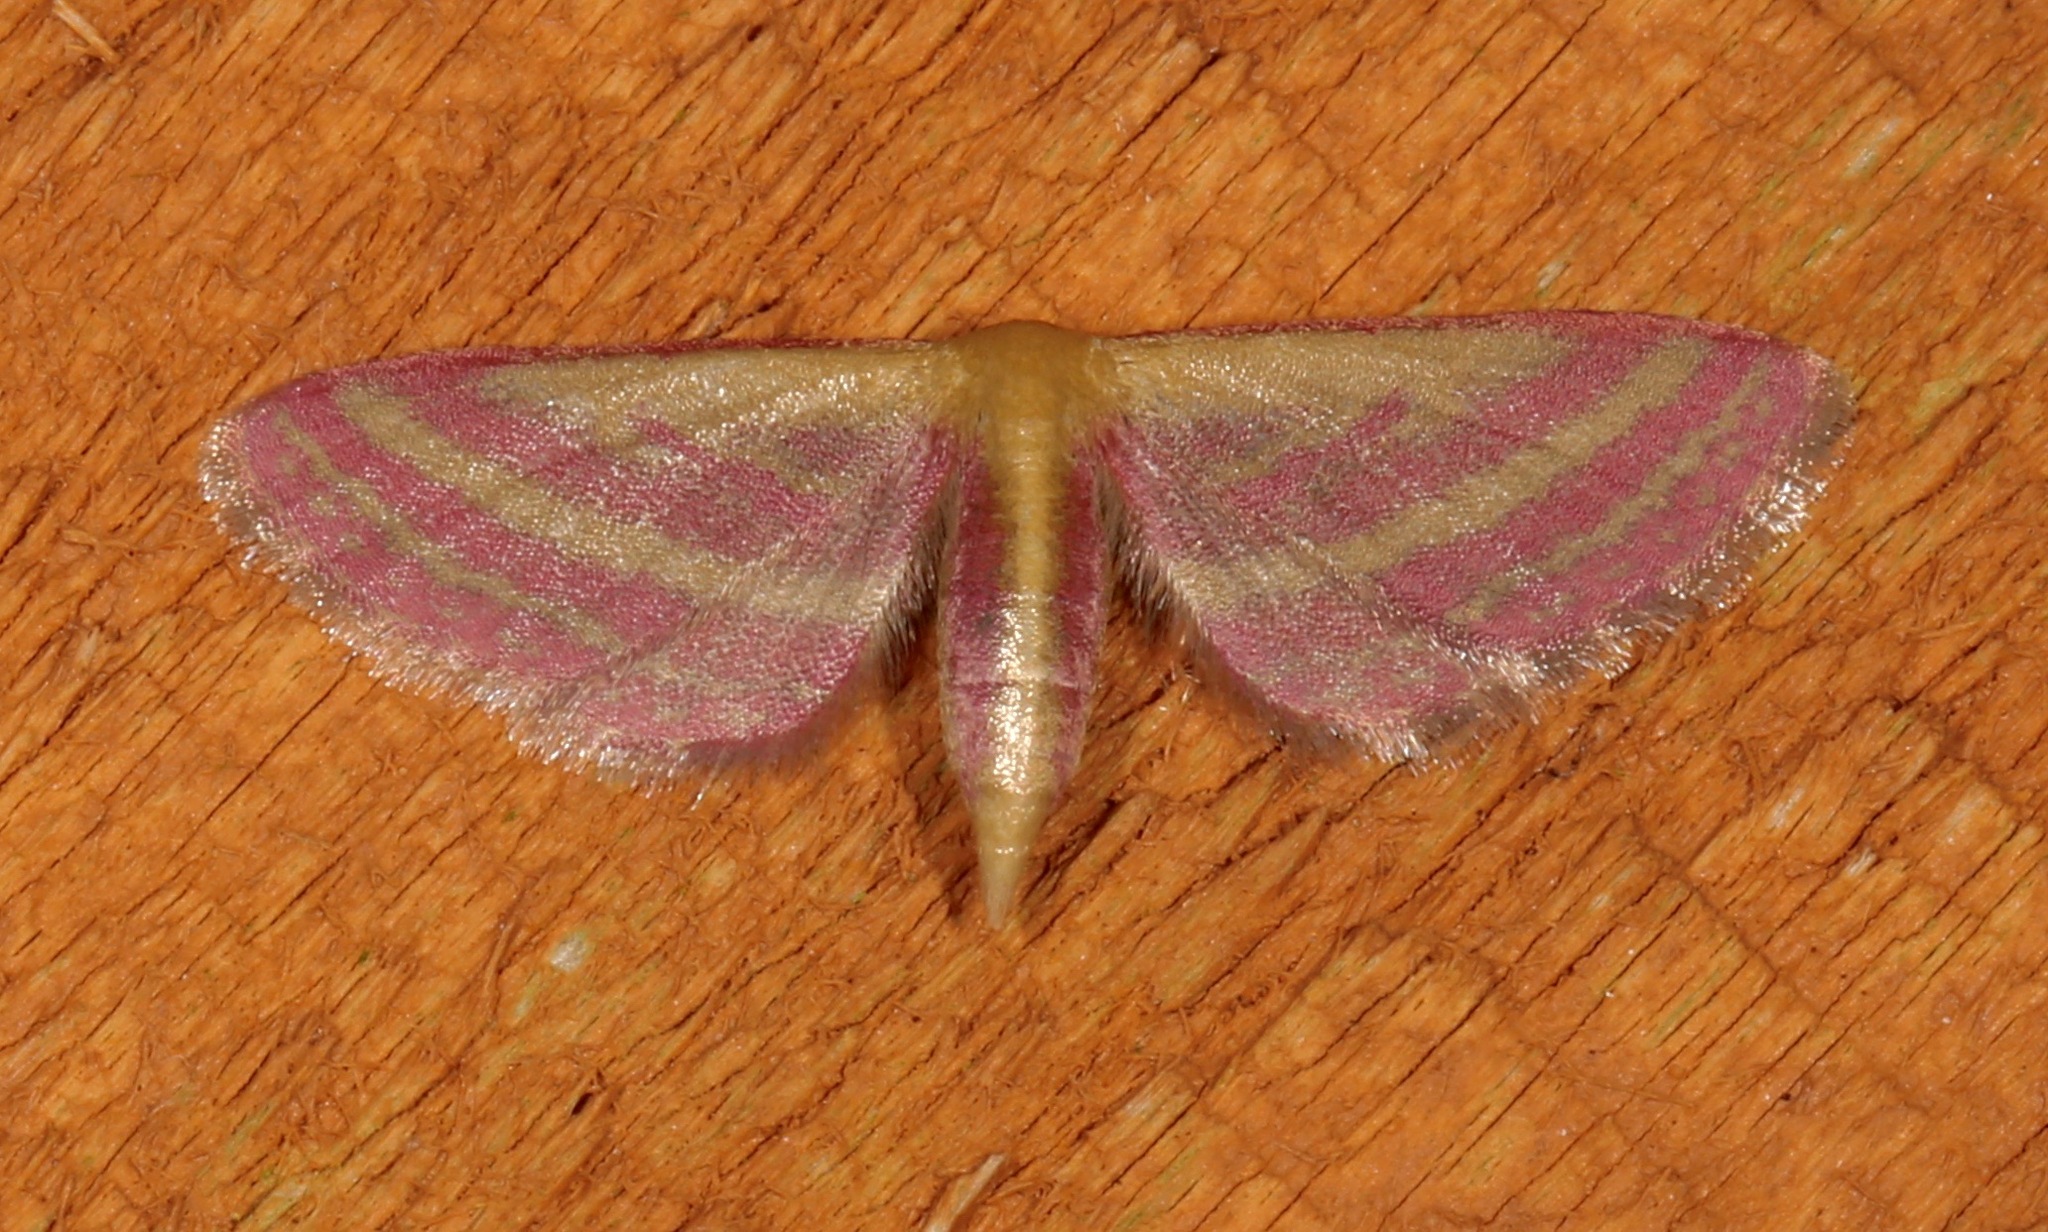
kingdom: Animalia
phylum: Arthropoda
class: Insecta
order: Lepidoptera
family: Geometridae
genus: Leptostales
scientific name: Leptostales laevitaria
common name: Raspberry wave moth
